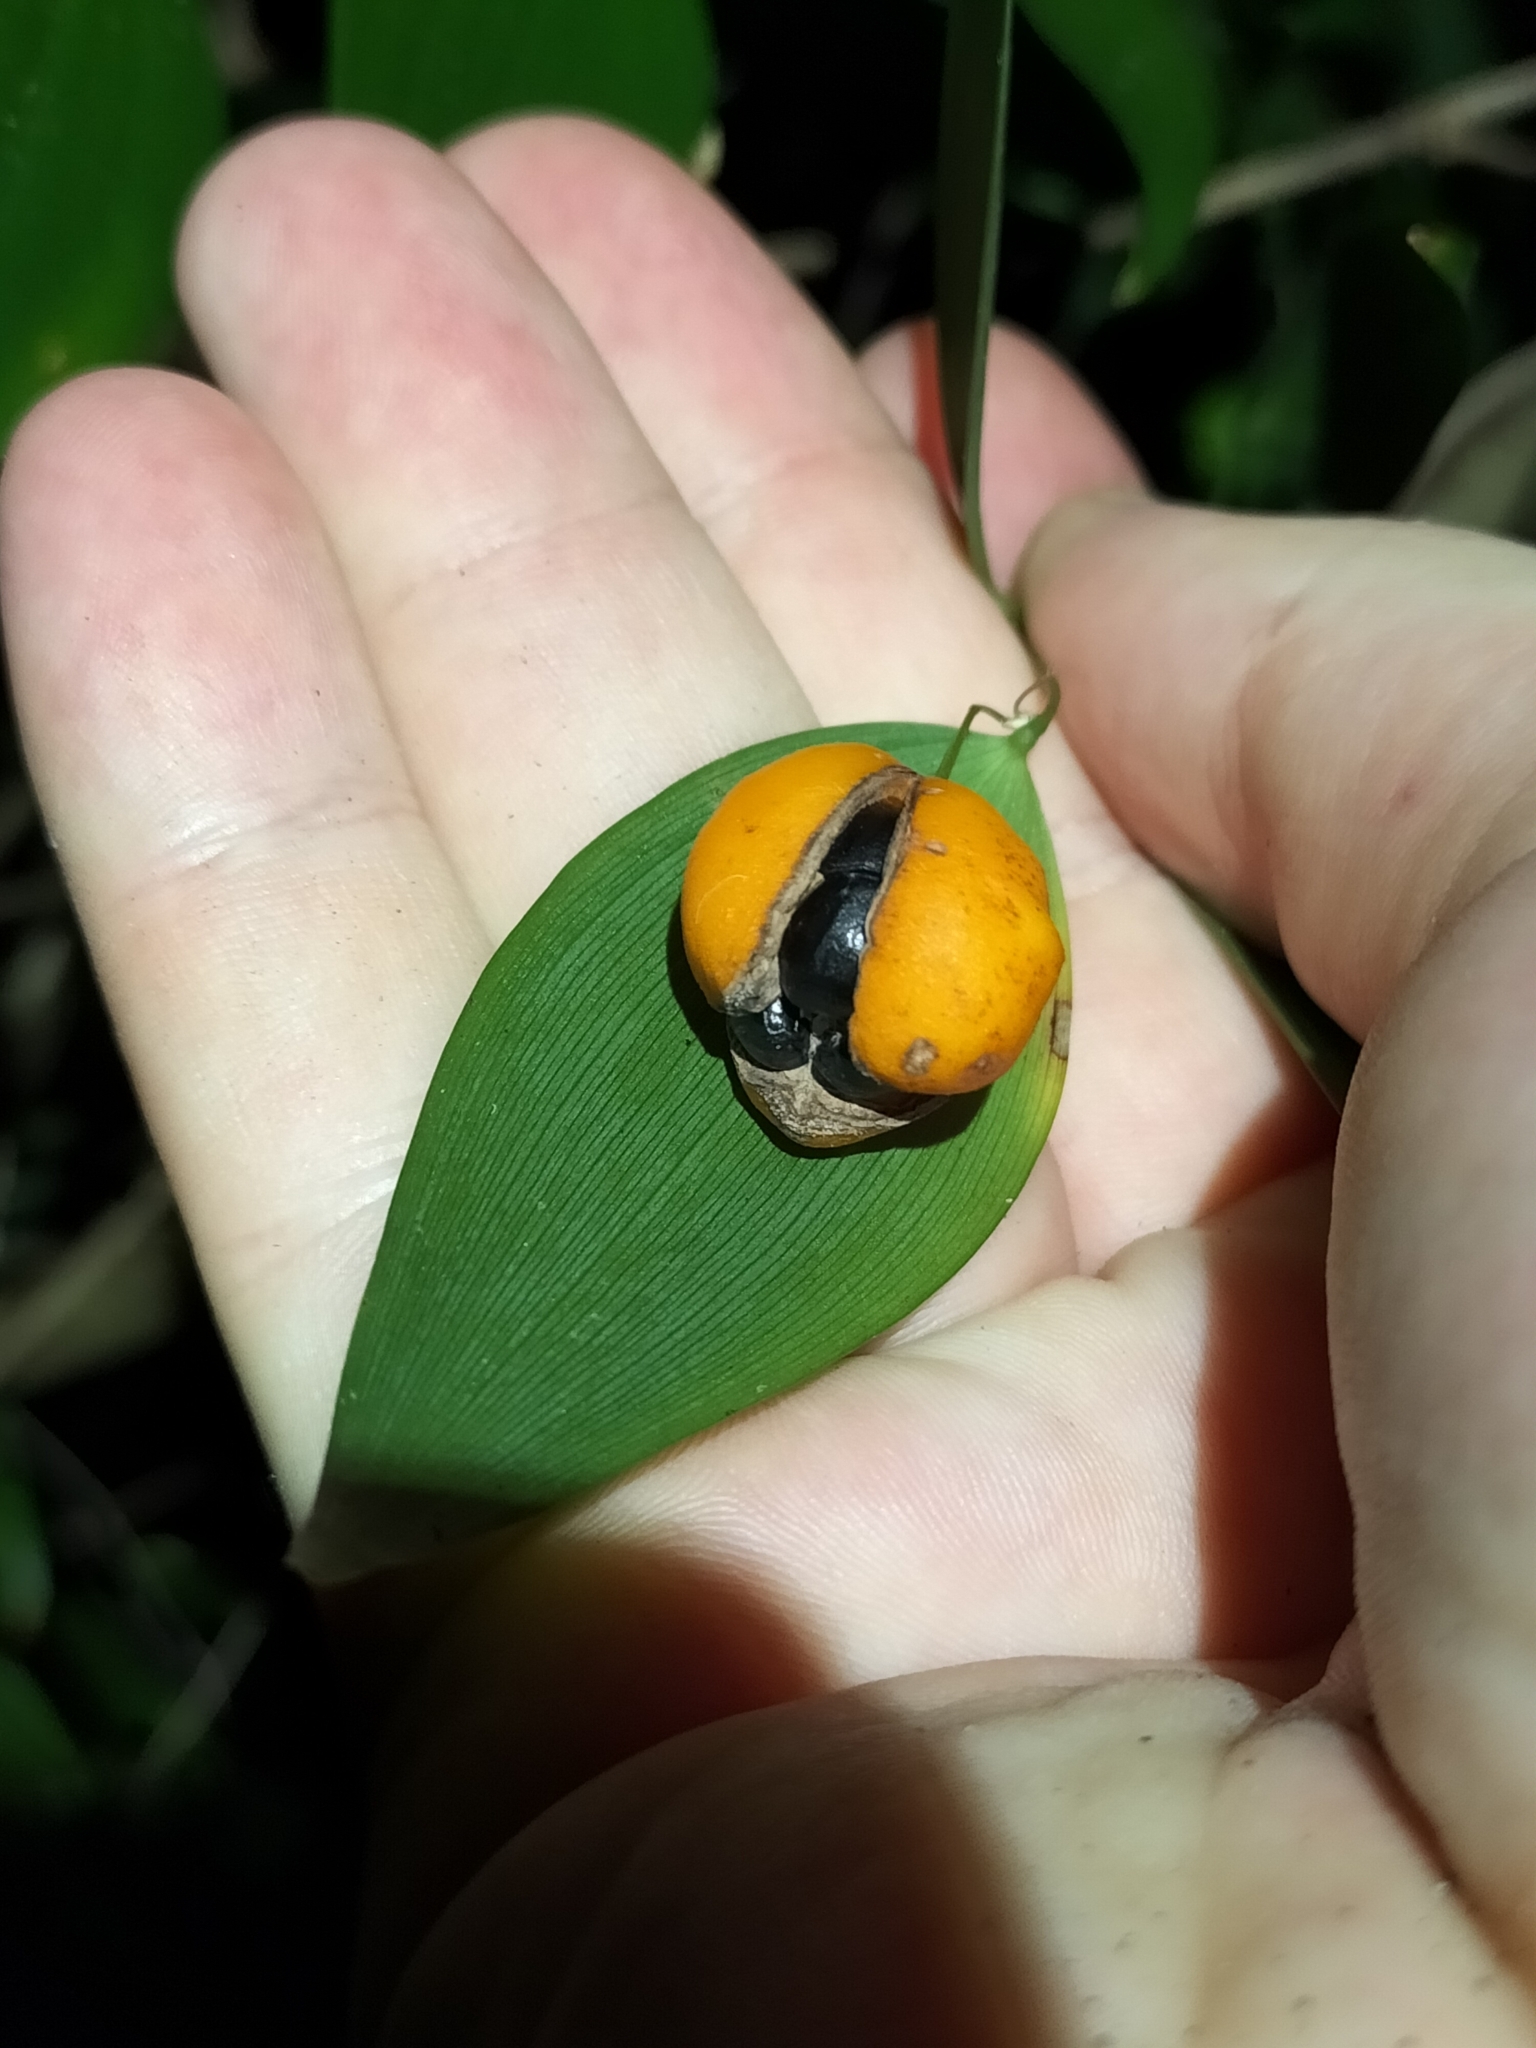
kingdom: Plantae
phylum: Tracheophyta
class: Liliopsida
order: Asparagales
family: Asparagaceae
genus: Eustrephus
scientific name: Eustrephus latifolius
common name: Orangevine
